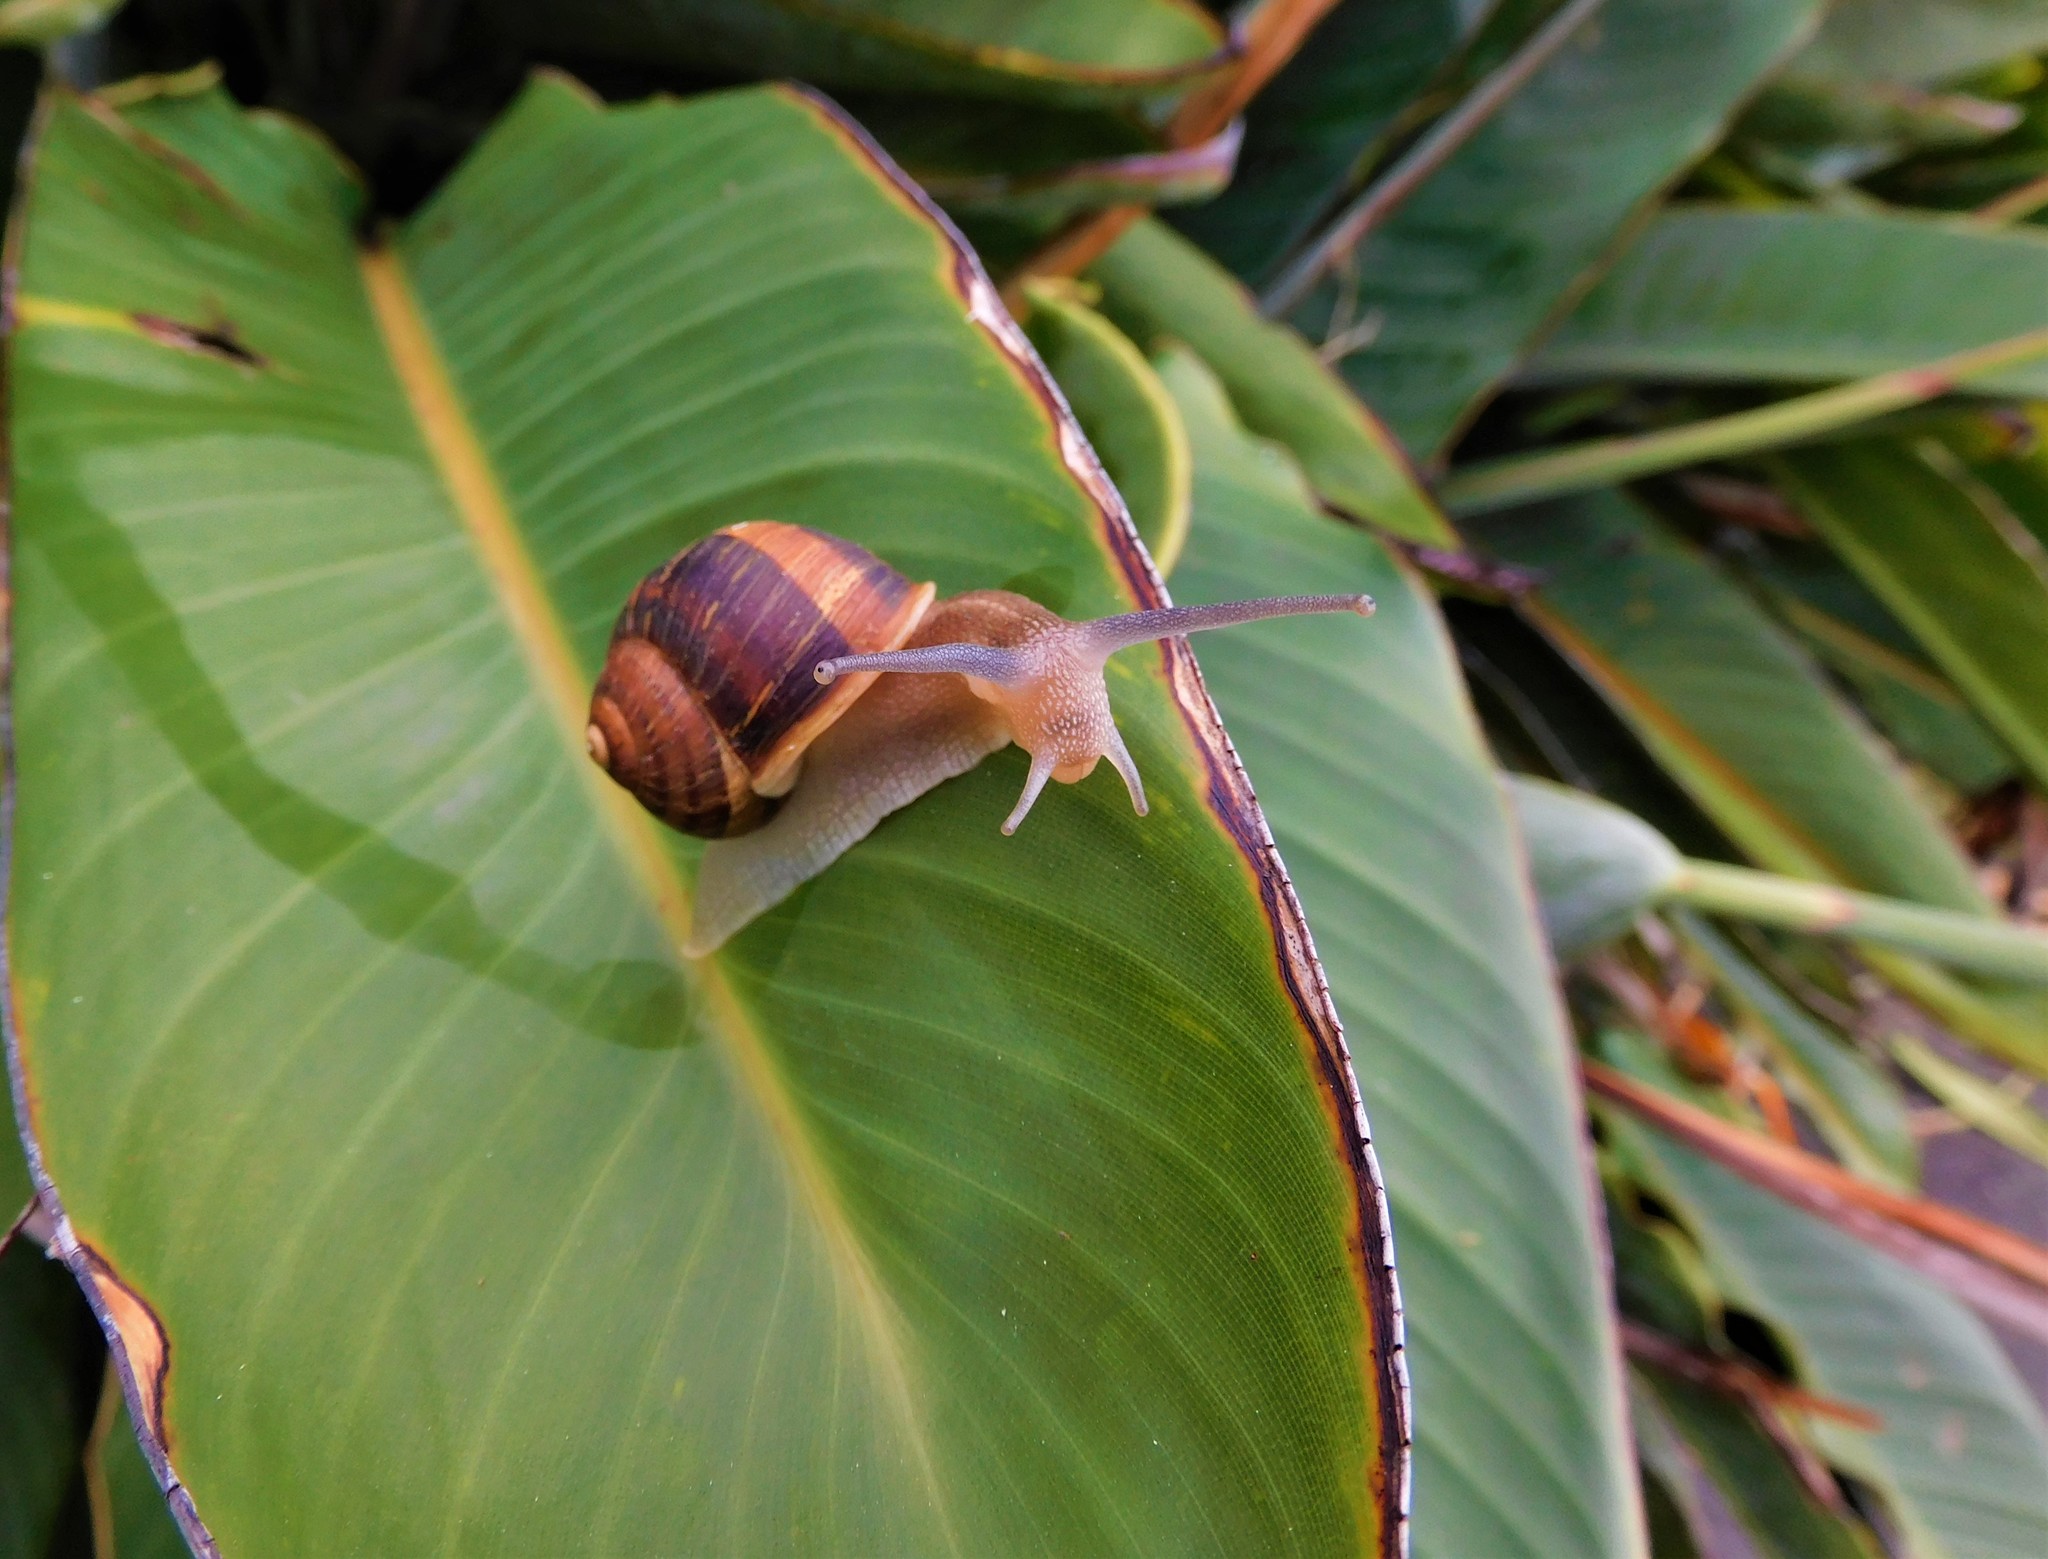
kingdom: Animalia
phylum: Mollusca
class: Gastropoda
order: Stylommatophora
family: Helicidae
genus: Cornu
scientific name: Cornu aspersum
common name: Brown garden snail
